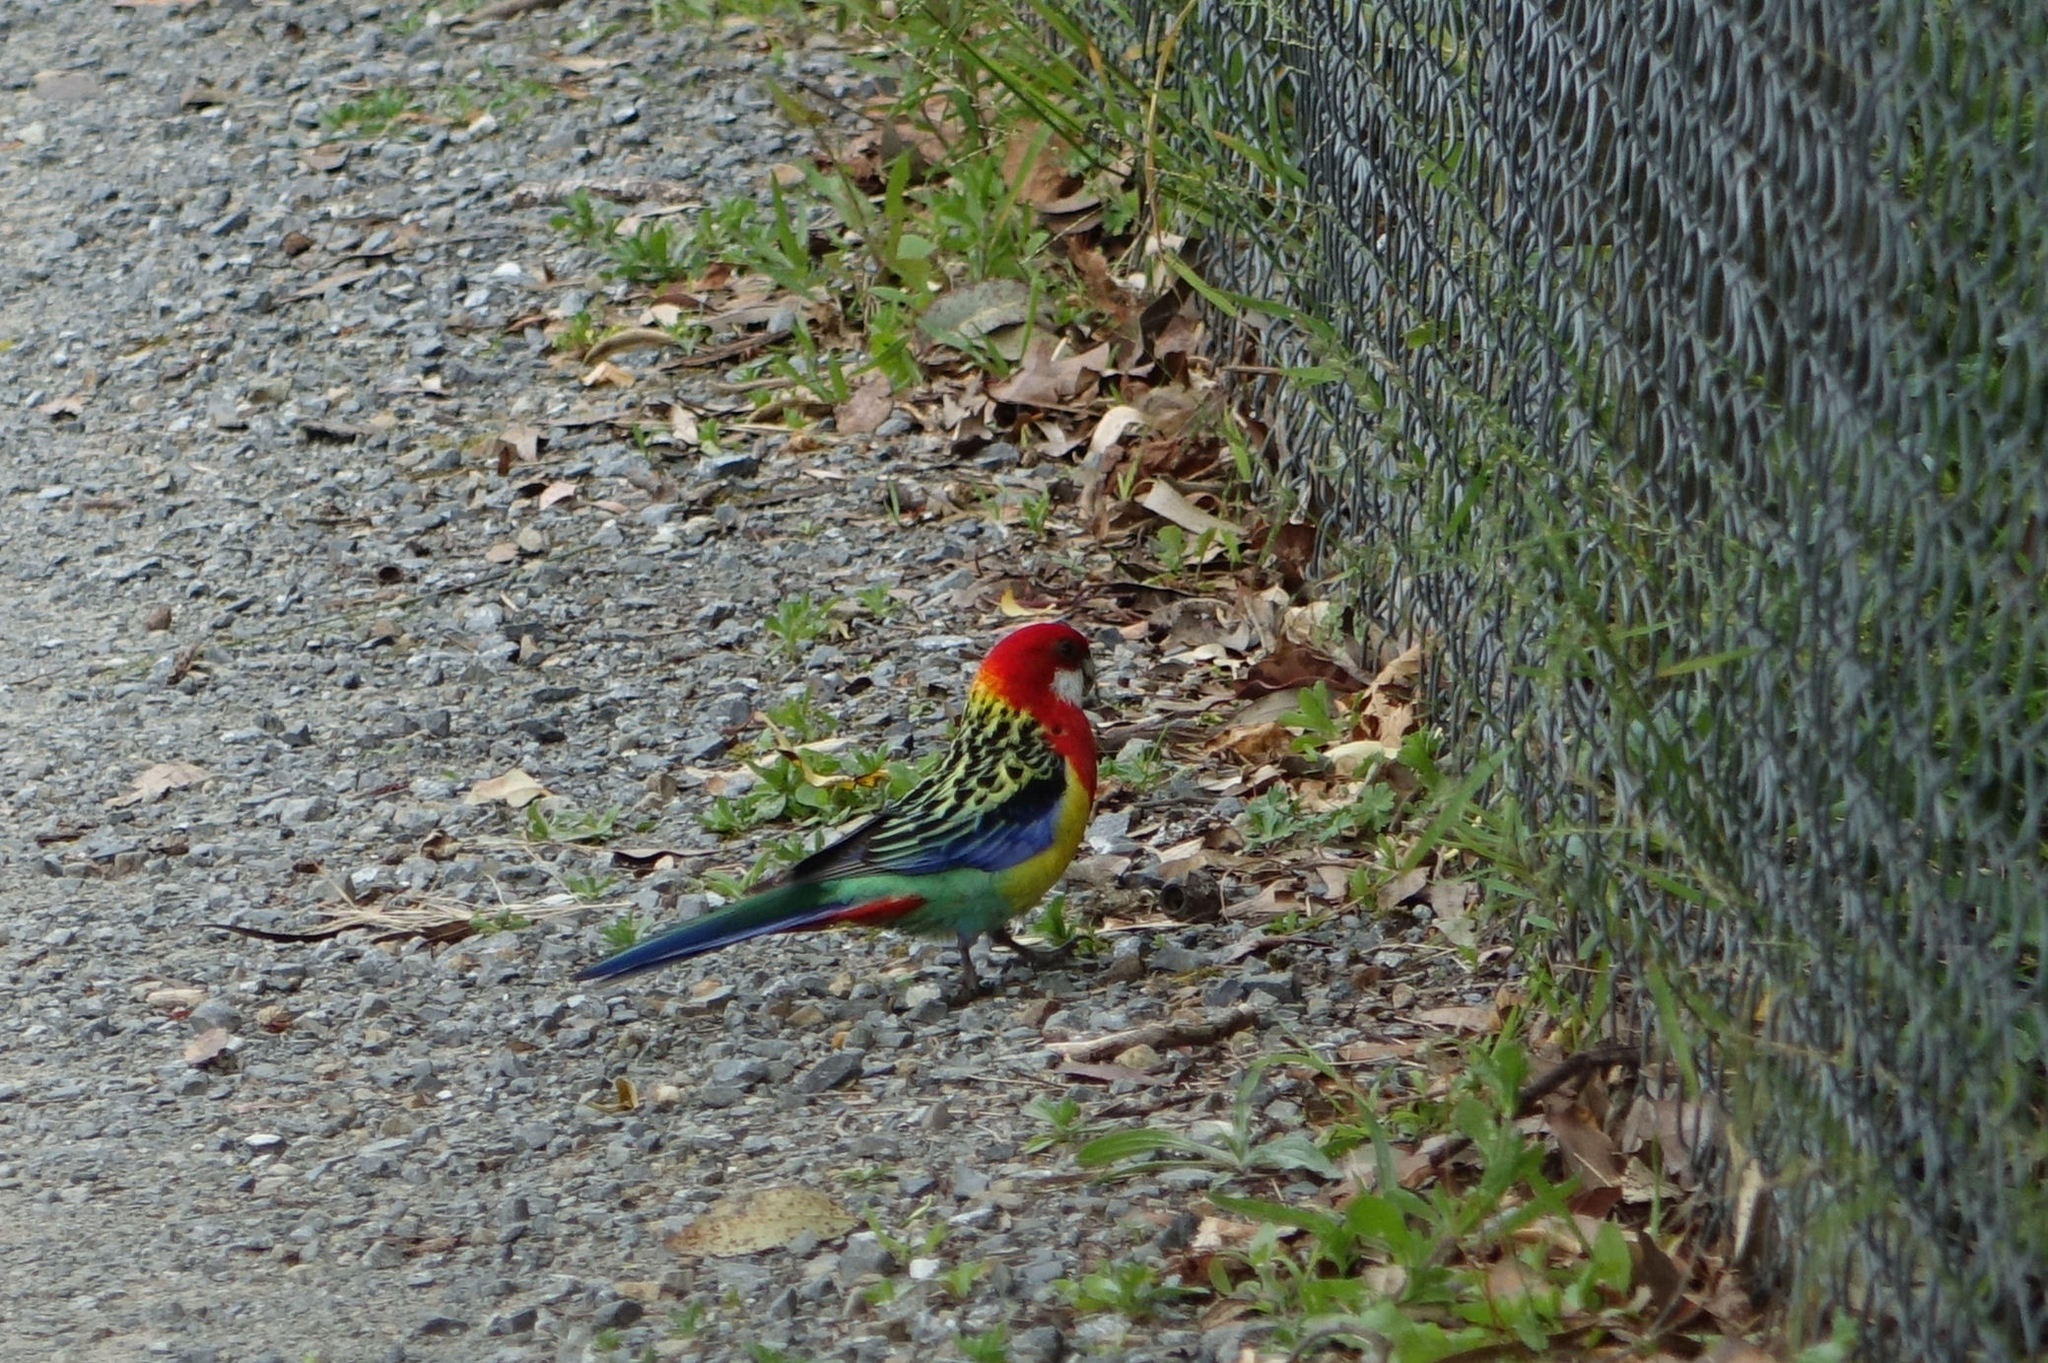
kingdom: Animalia
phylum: Chordata
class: Aves
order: Psittaciformes
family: Psittacidae
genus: Platycercus
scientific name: Platycercus eximius
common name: Eastern rosella
